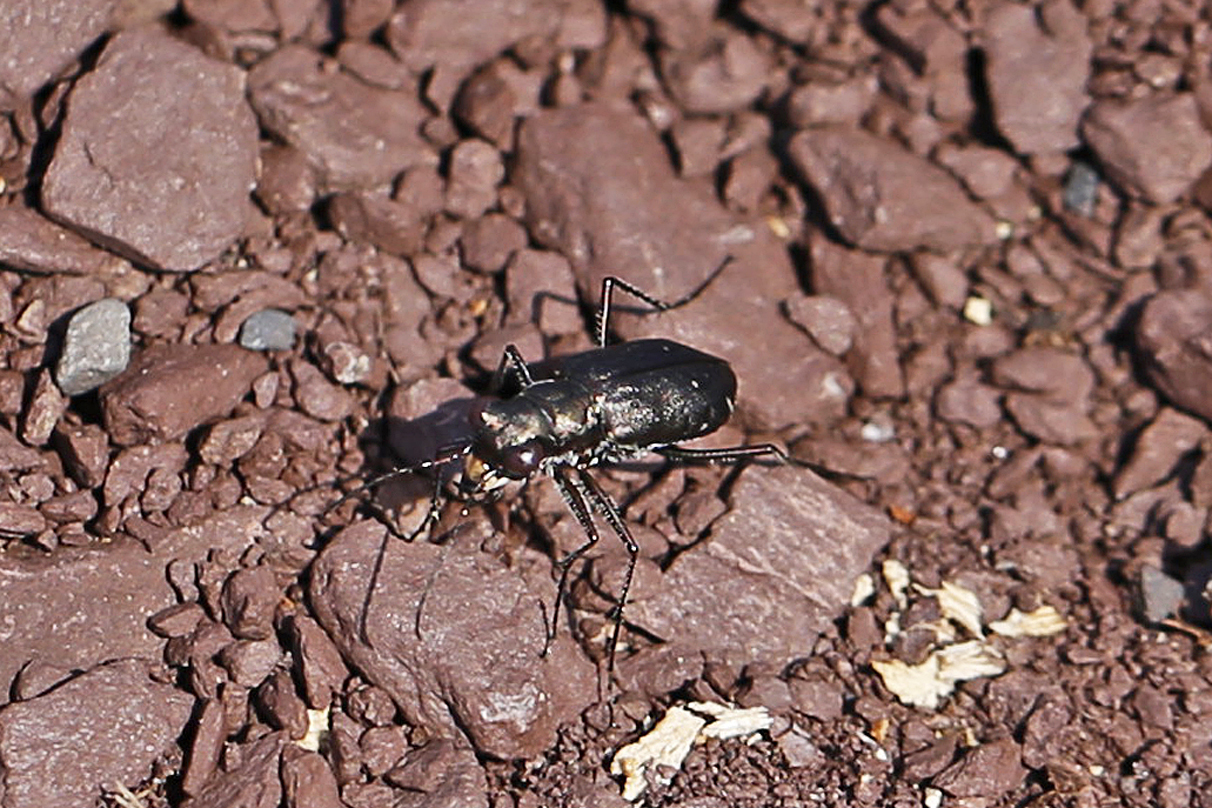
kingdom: Animalia
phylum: Arthropoda
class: Insecta
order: Coleoptera
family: Carabidae
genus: Cicindela
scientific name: Cicindela punctulata
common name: Punctured tiger beetle
